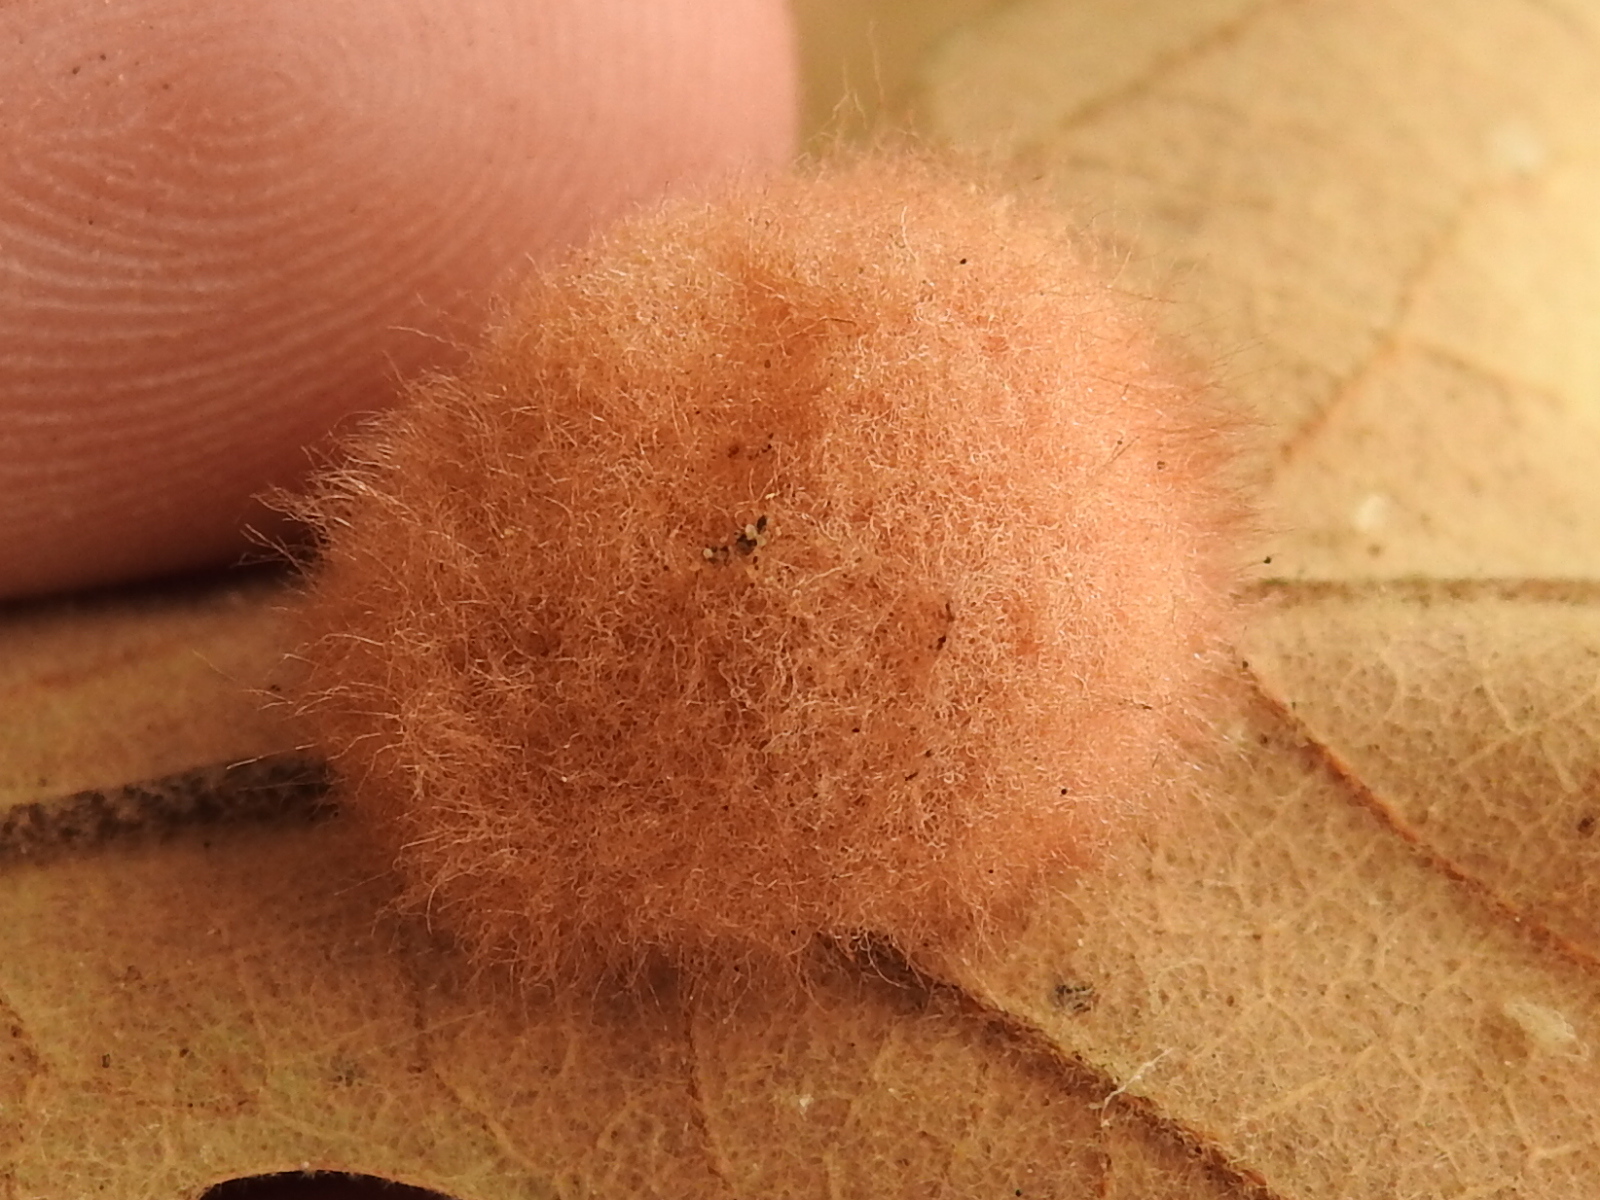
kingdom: Animalia
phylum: Arthropoda
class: Insecta
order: Hymenoptera
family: Cynipidae
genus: Andricus
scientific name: Andricus Druon pattoni
